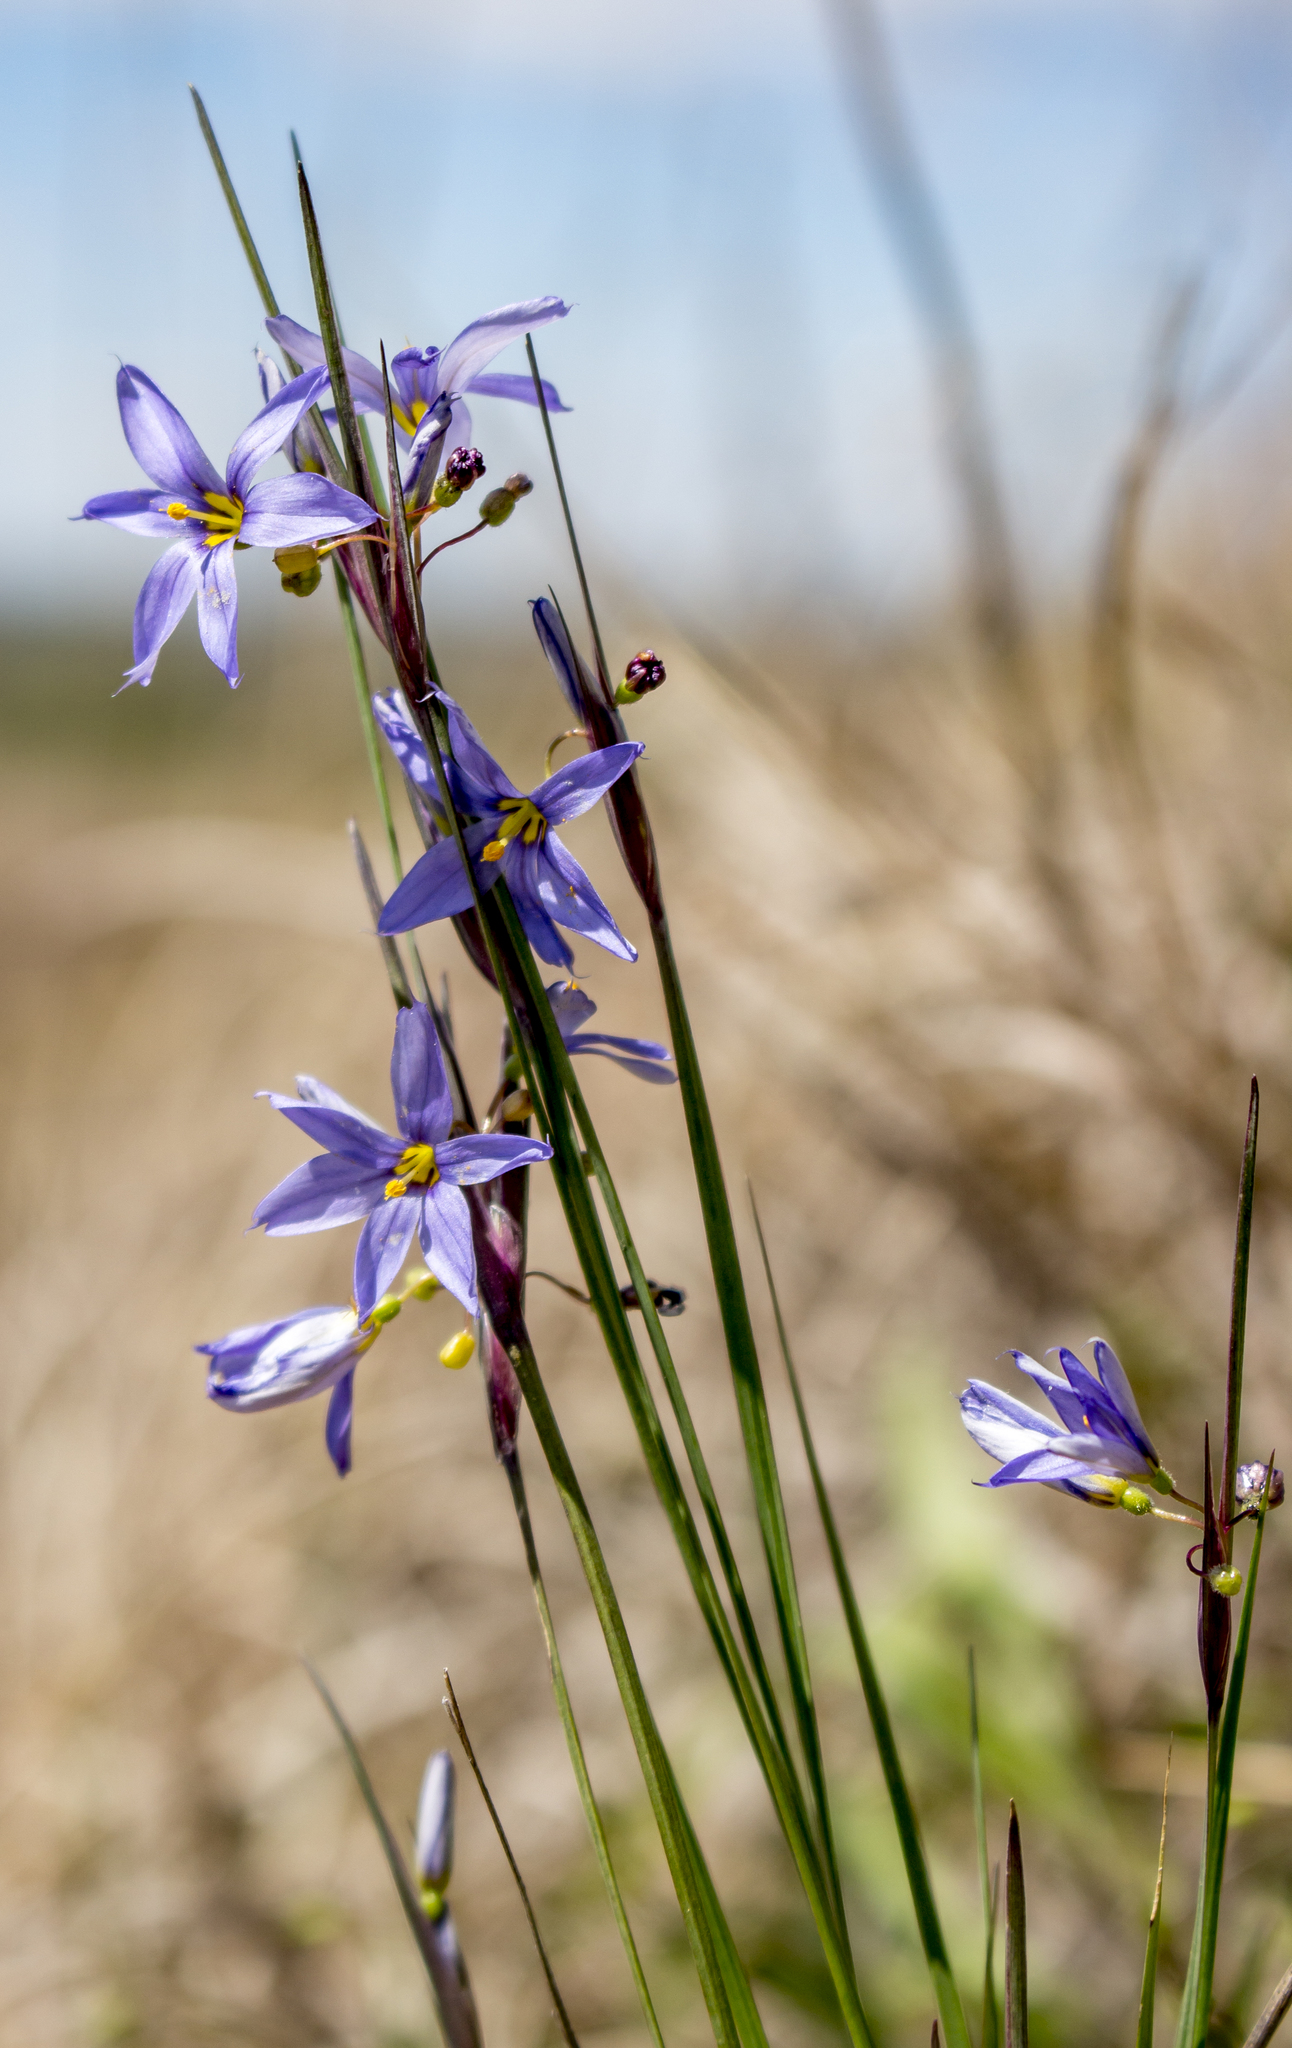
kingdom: Plantae
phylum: Tracheophyta
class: Liliopsida
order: Asparagales
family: Iridaceae
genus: Sisyrinchium
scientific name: Sisyrinchium campestre
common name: Prairie blue-eyed-grass
